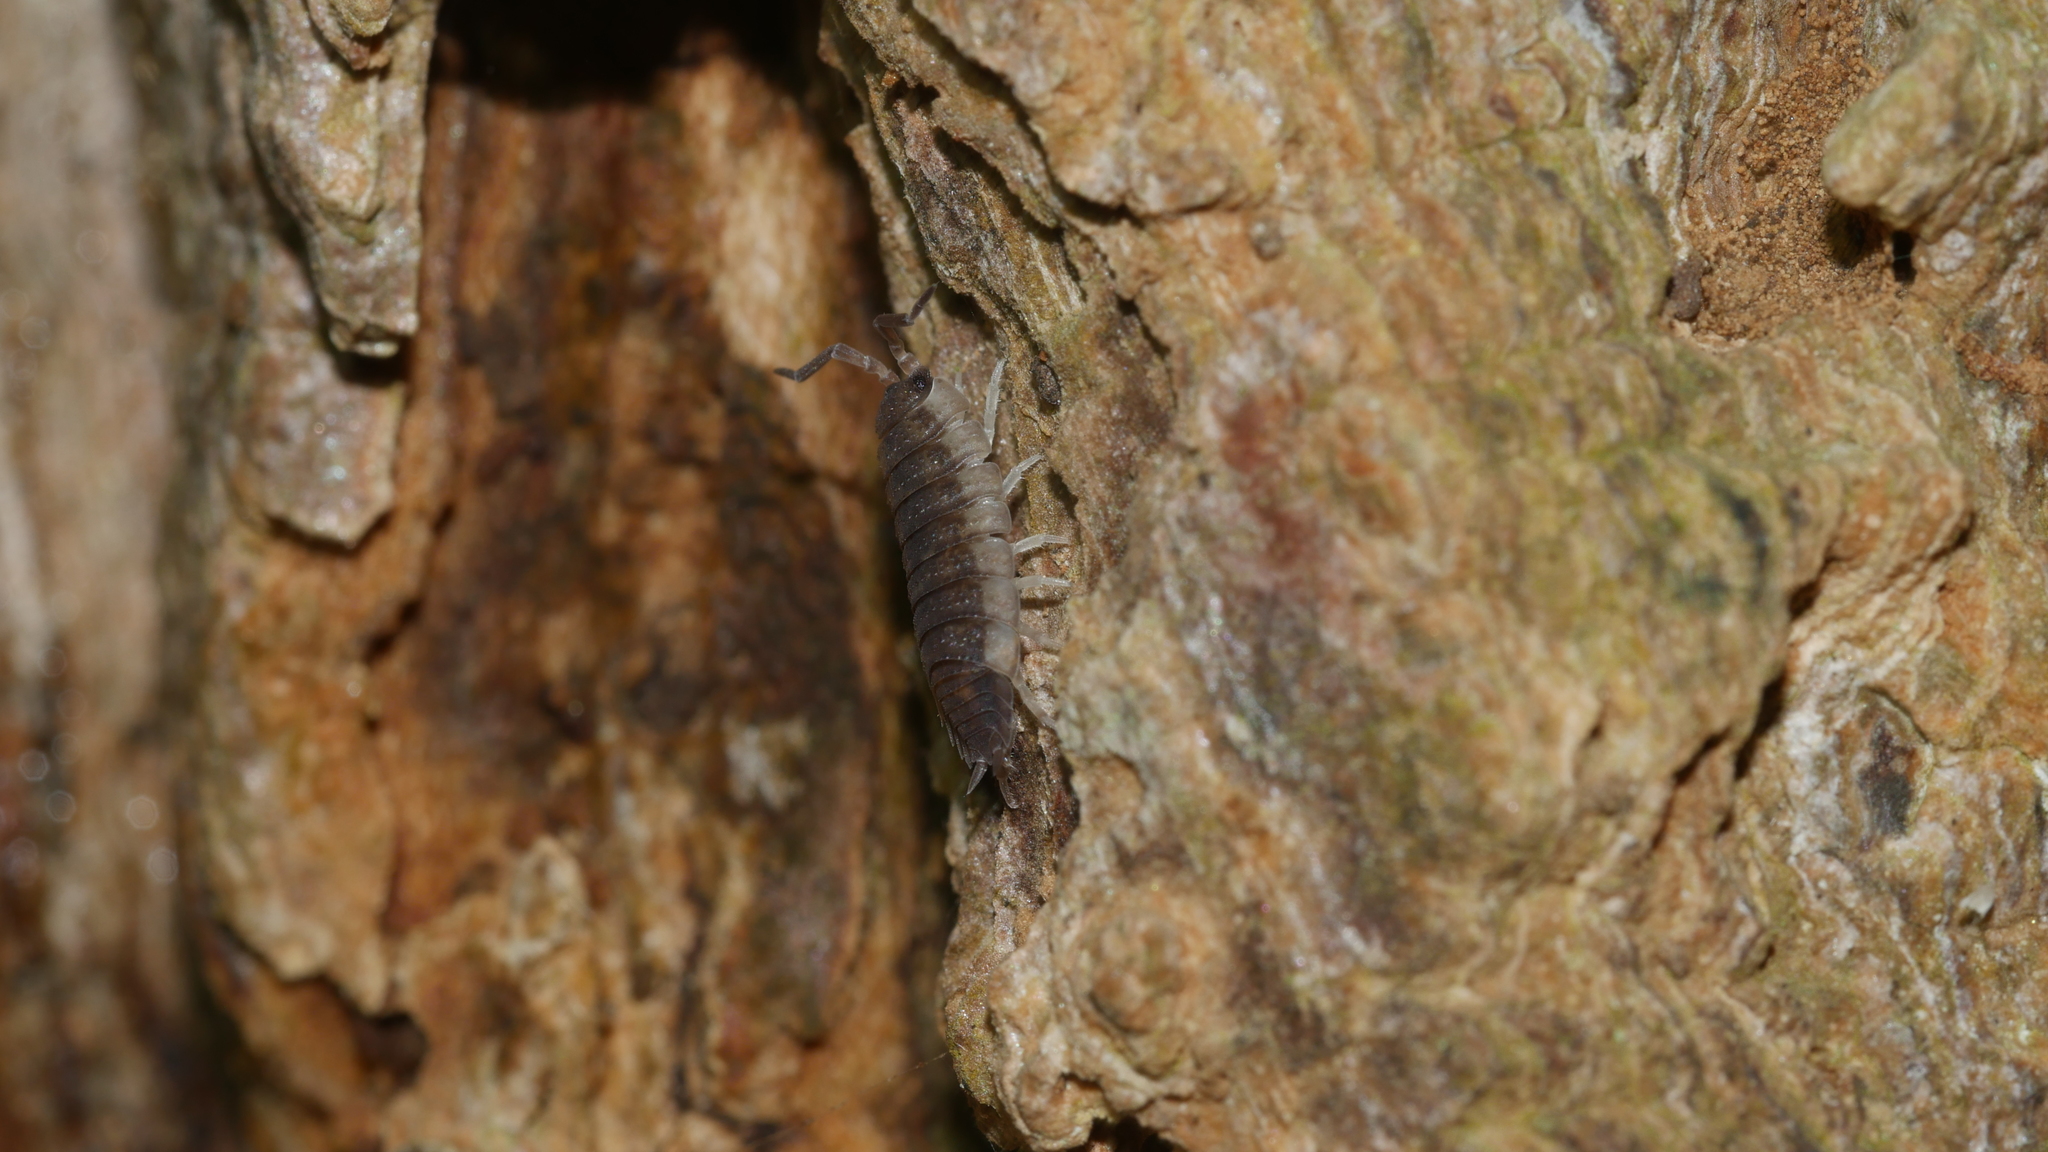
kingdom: Animalia
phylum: Arthropoda
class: Malacostraca
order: Isopoda
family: Porcellionidae
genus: Porcellio
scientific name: Porcellio scaber
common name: Common rough woodlouse
